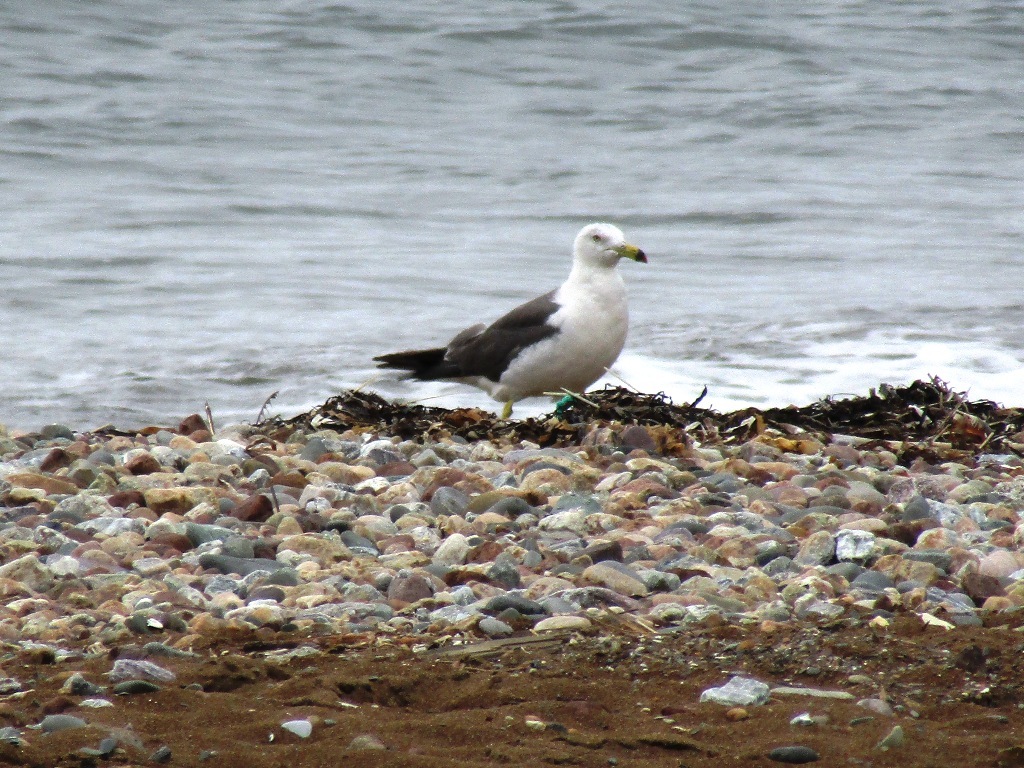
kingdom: Animalia
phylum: Chordata
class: Aves
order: Charadriiformes
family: Laridae
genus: Larus
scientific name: Larus crassirostris
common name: Black-tailed gull
